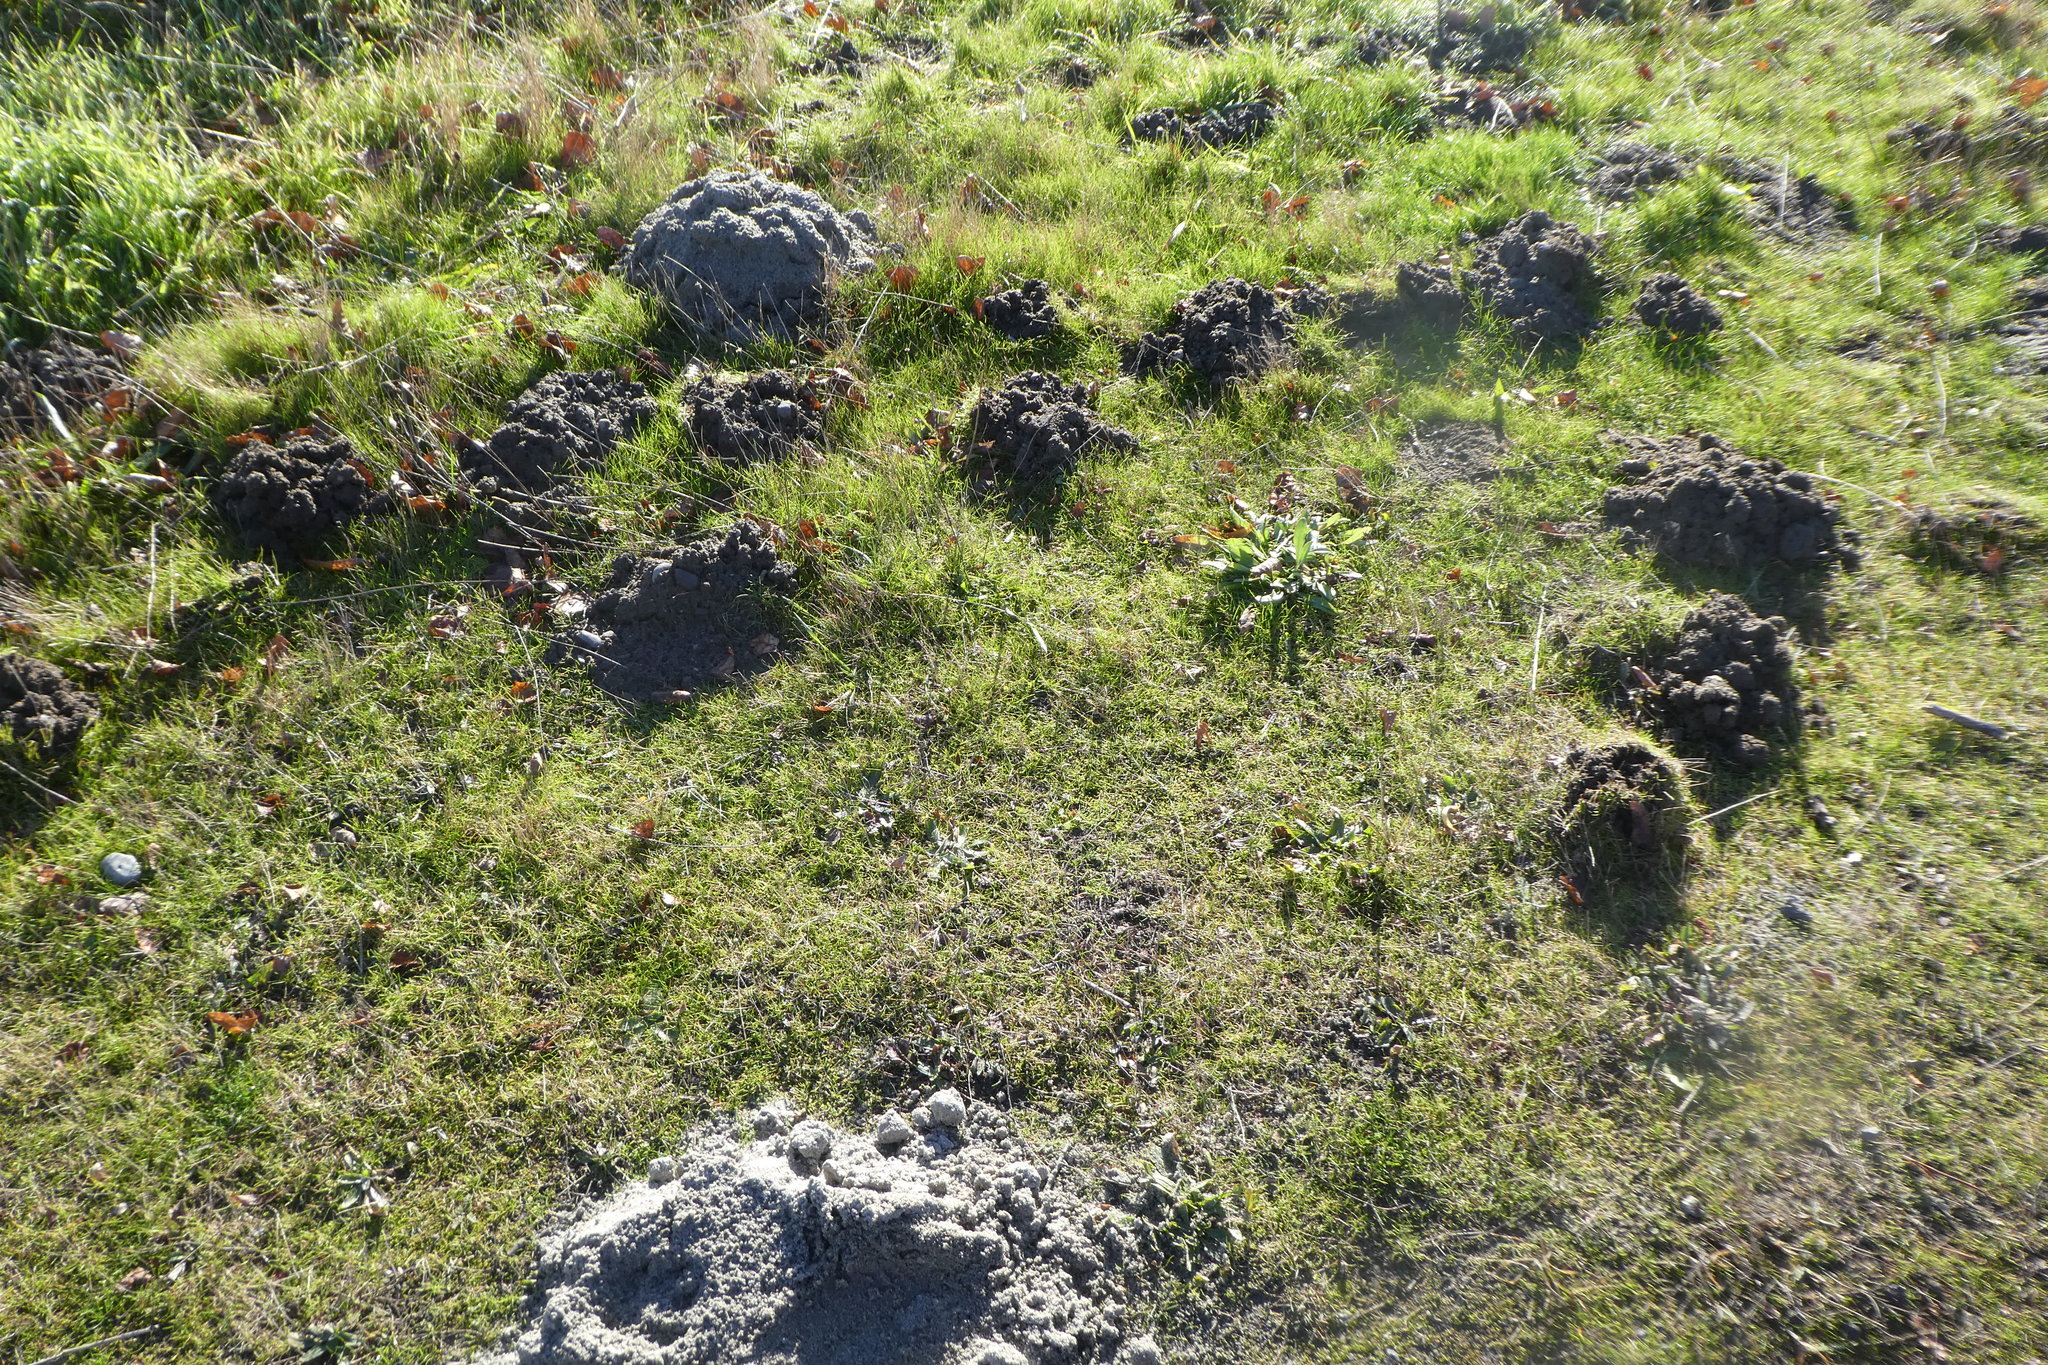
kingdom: Animalia
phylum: Chordata
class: Mammalia
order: Soricomorpha
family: Talpidae
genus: Scapanus
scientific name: Scapanus orarius
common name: Coast mole
